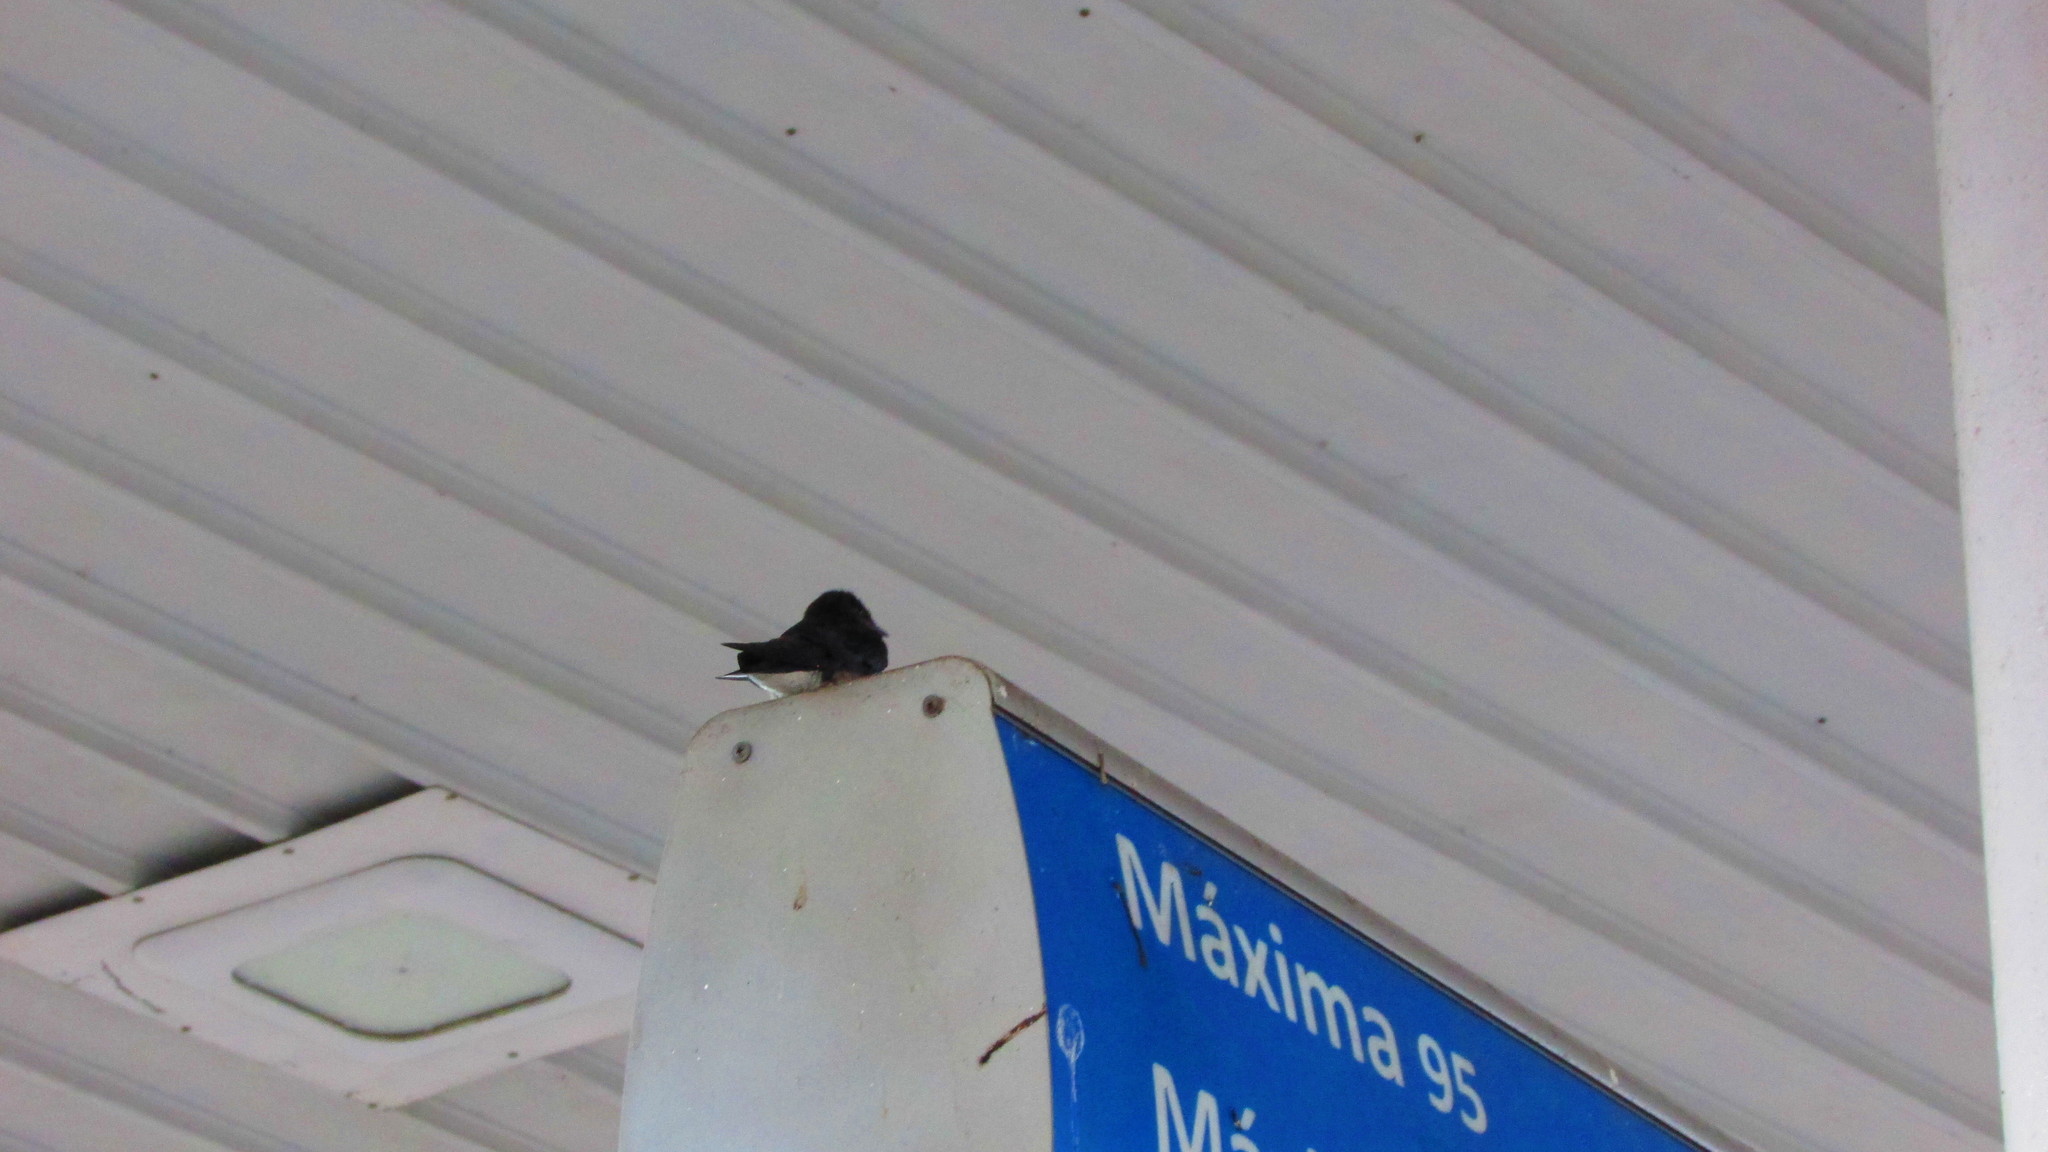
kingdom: Animalia
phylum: Chordata
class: Aves
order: Passeriformes
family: Hirundinidae
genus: Progne
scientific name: Progne chalybea
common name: Grey-breasted martin
